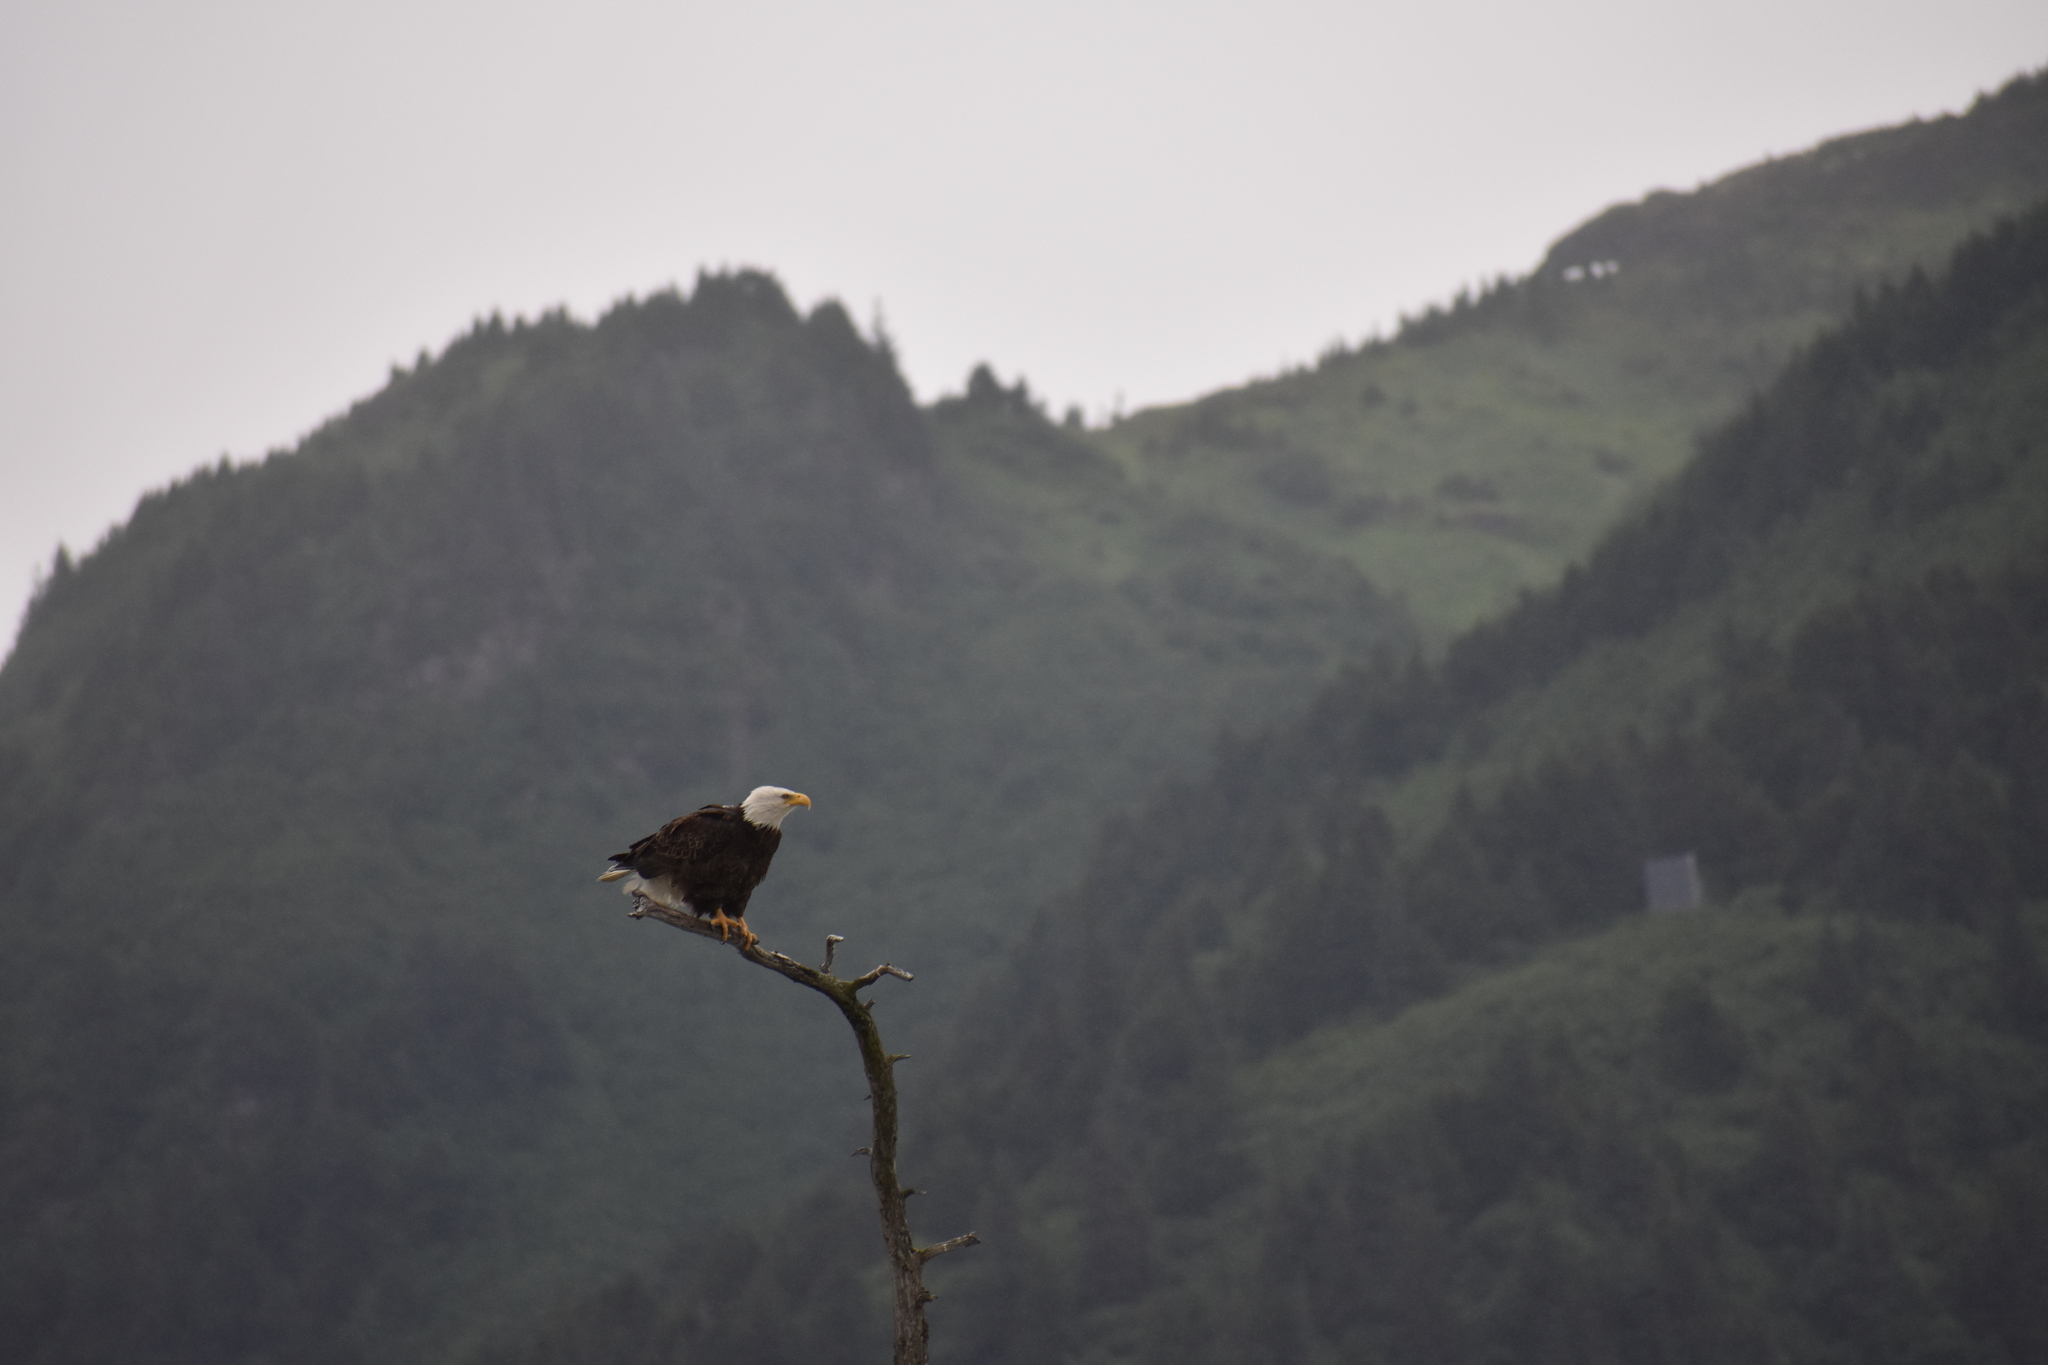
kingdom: Animalia
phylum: Chordata
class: Aves
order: Accipitriformes
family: Accipitridae
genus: Haliaeetus
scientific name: Haliaeetus leucocephalus
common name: Bald eagle
